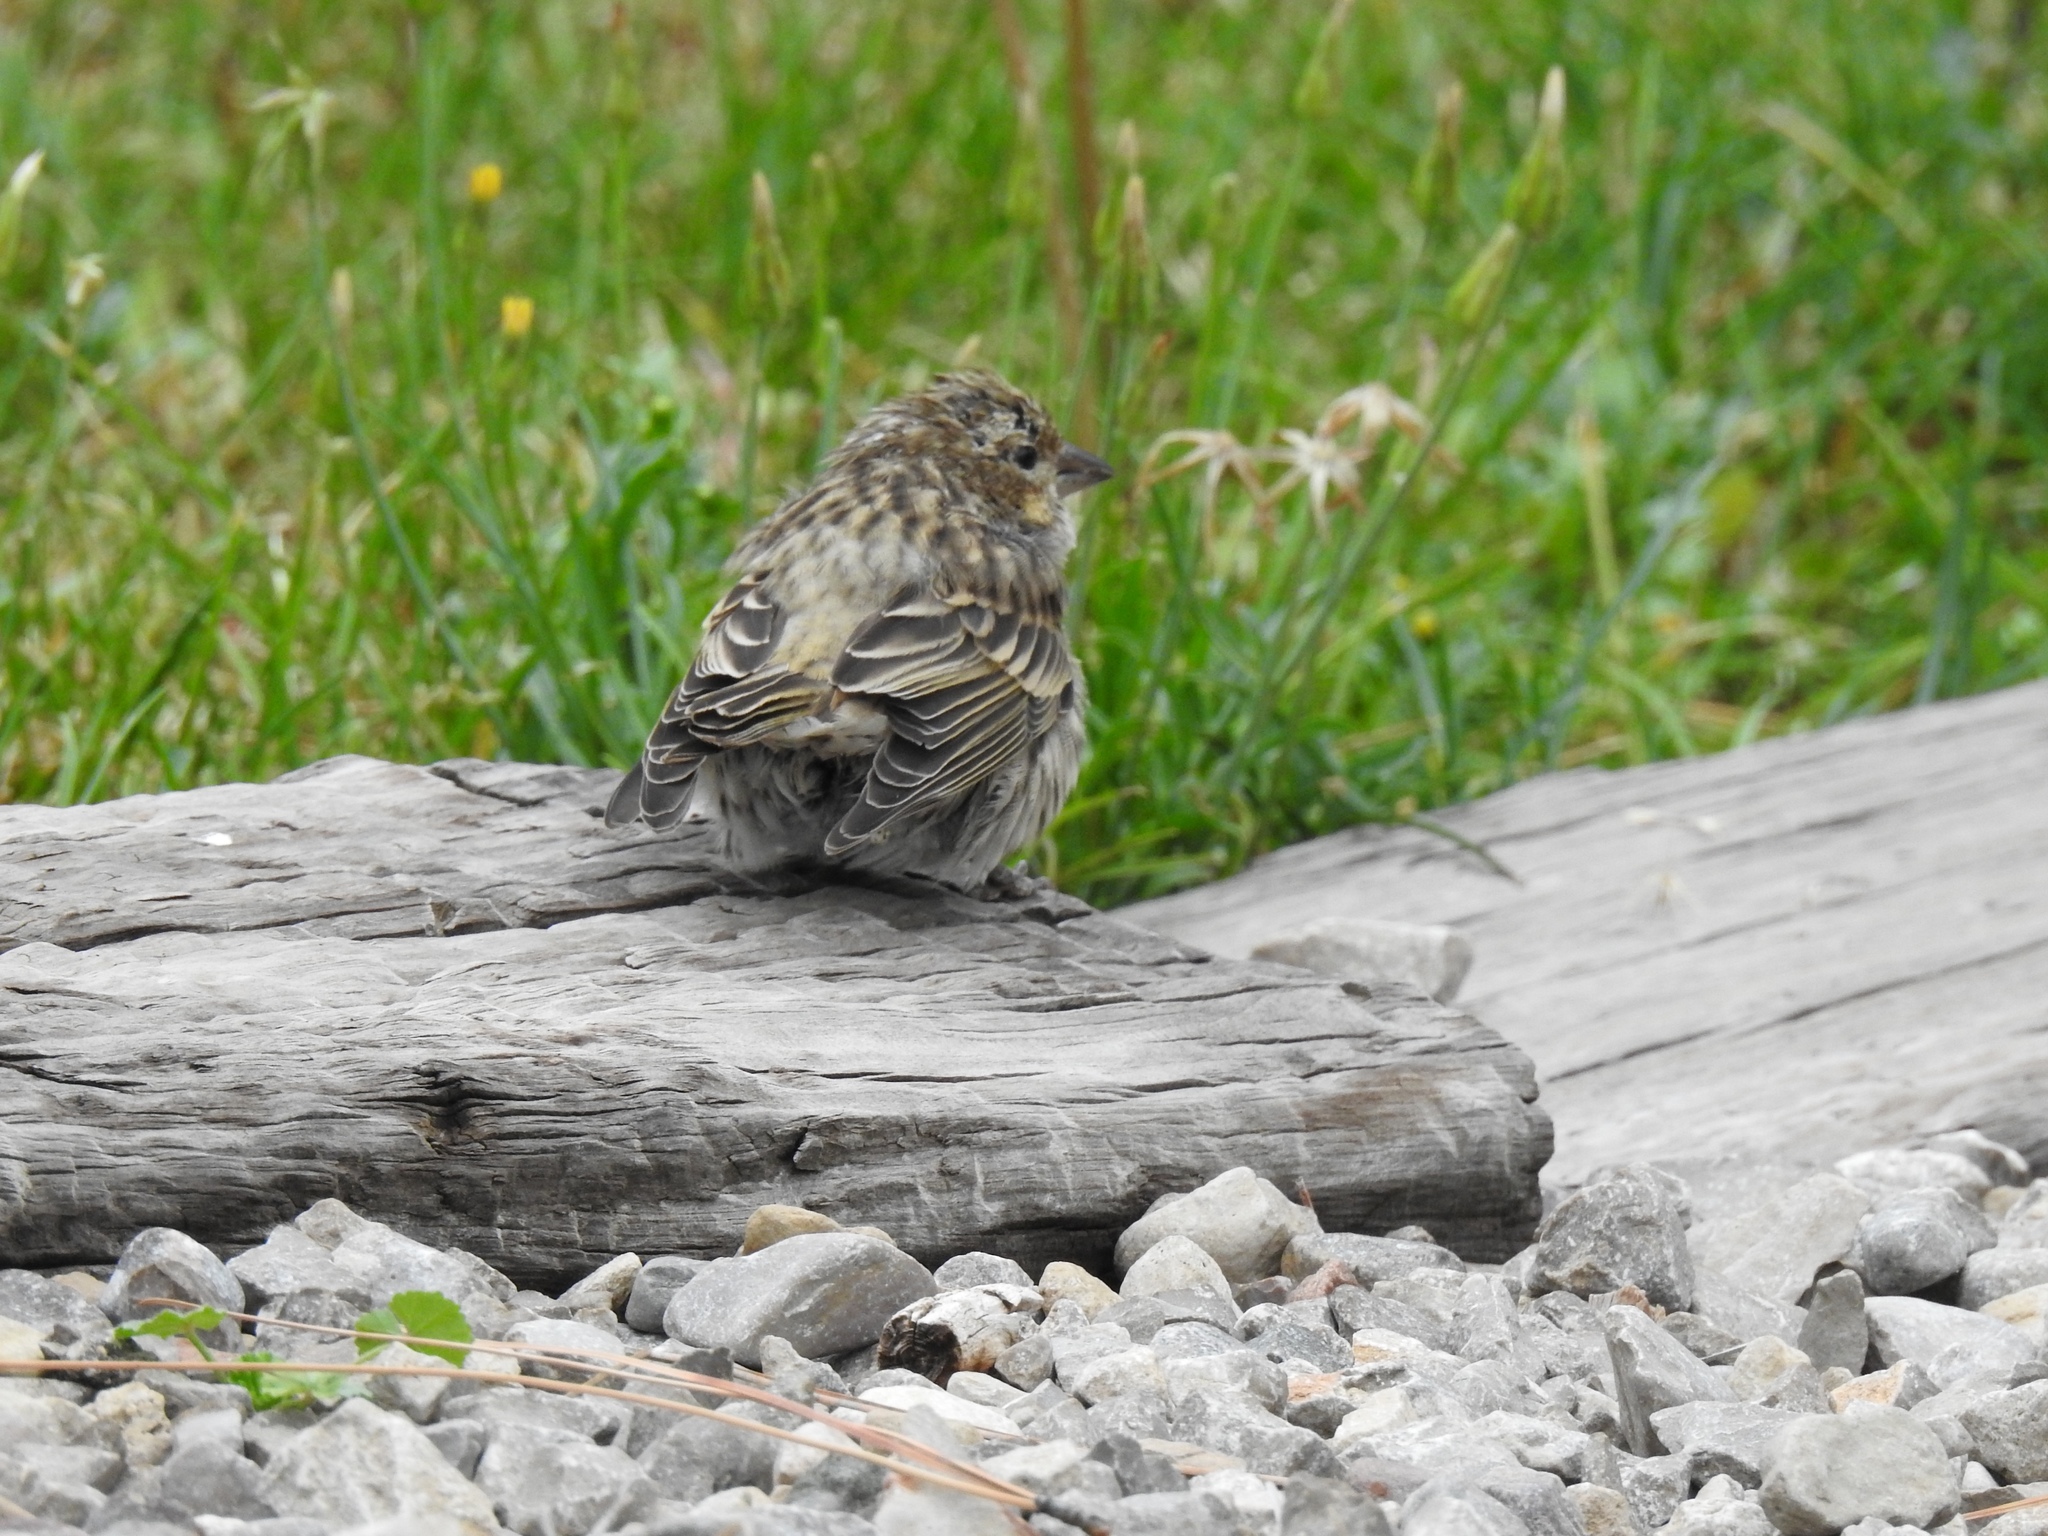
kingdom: Animalia
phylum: Chordata
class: Aves
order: Passeriformes
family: Fringillidae
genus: Haemorhous
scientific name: Haemorhous cassinii
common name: Cassin's finch
